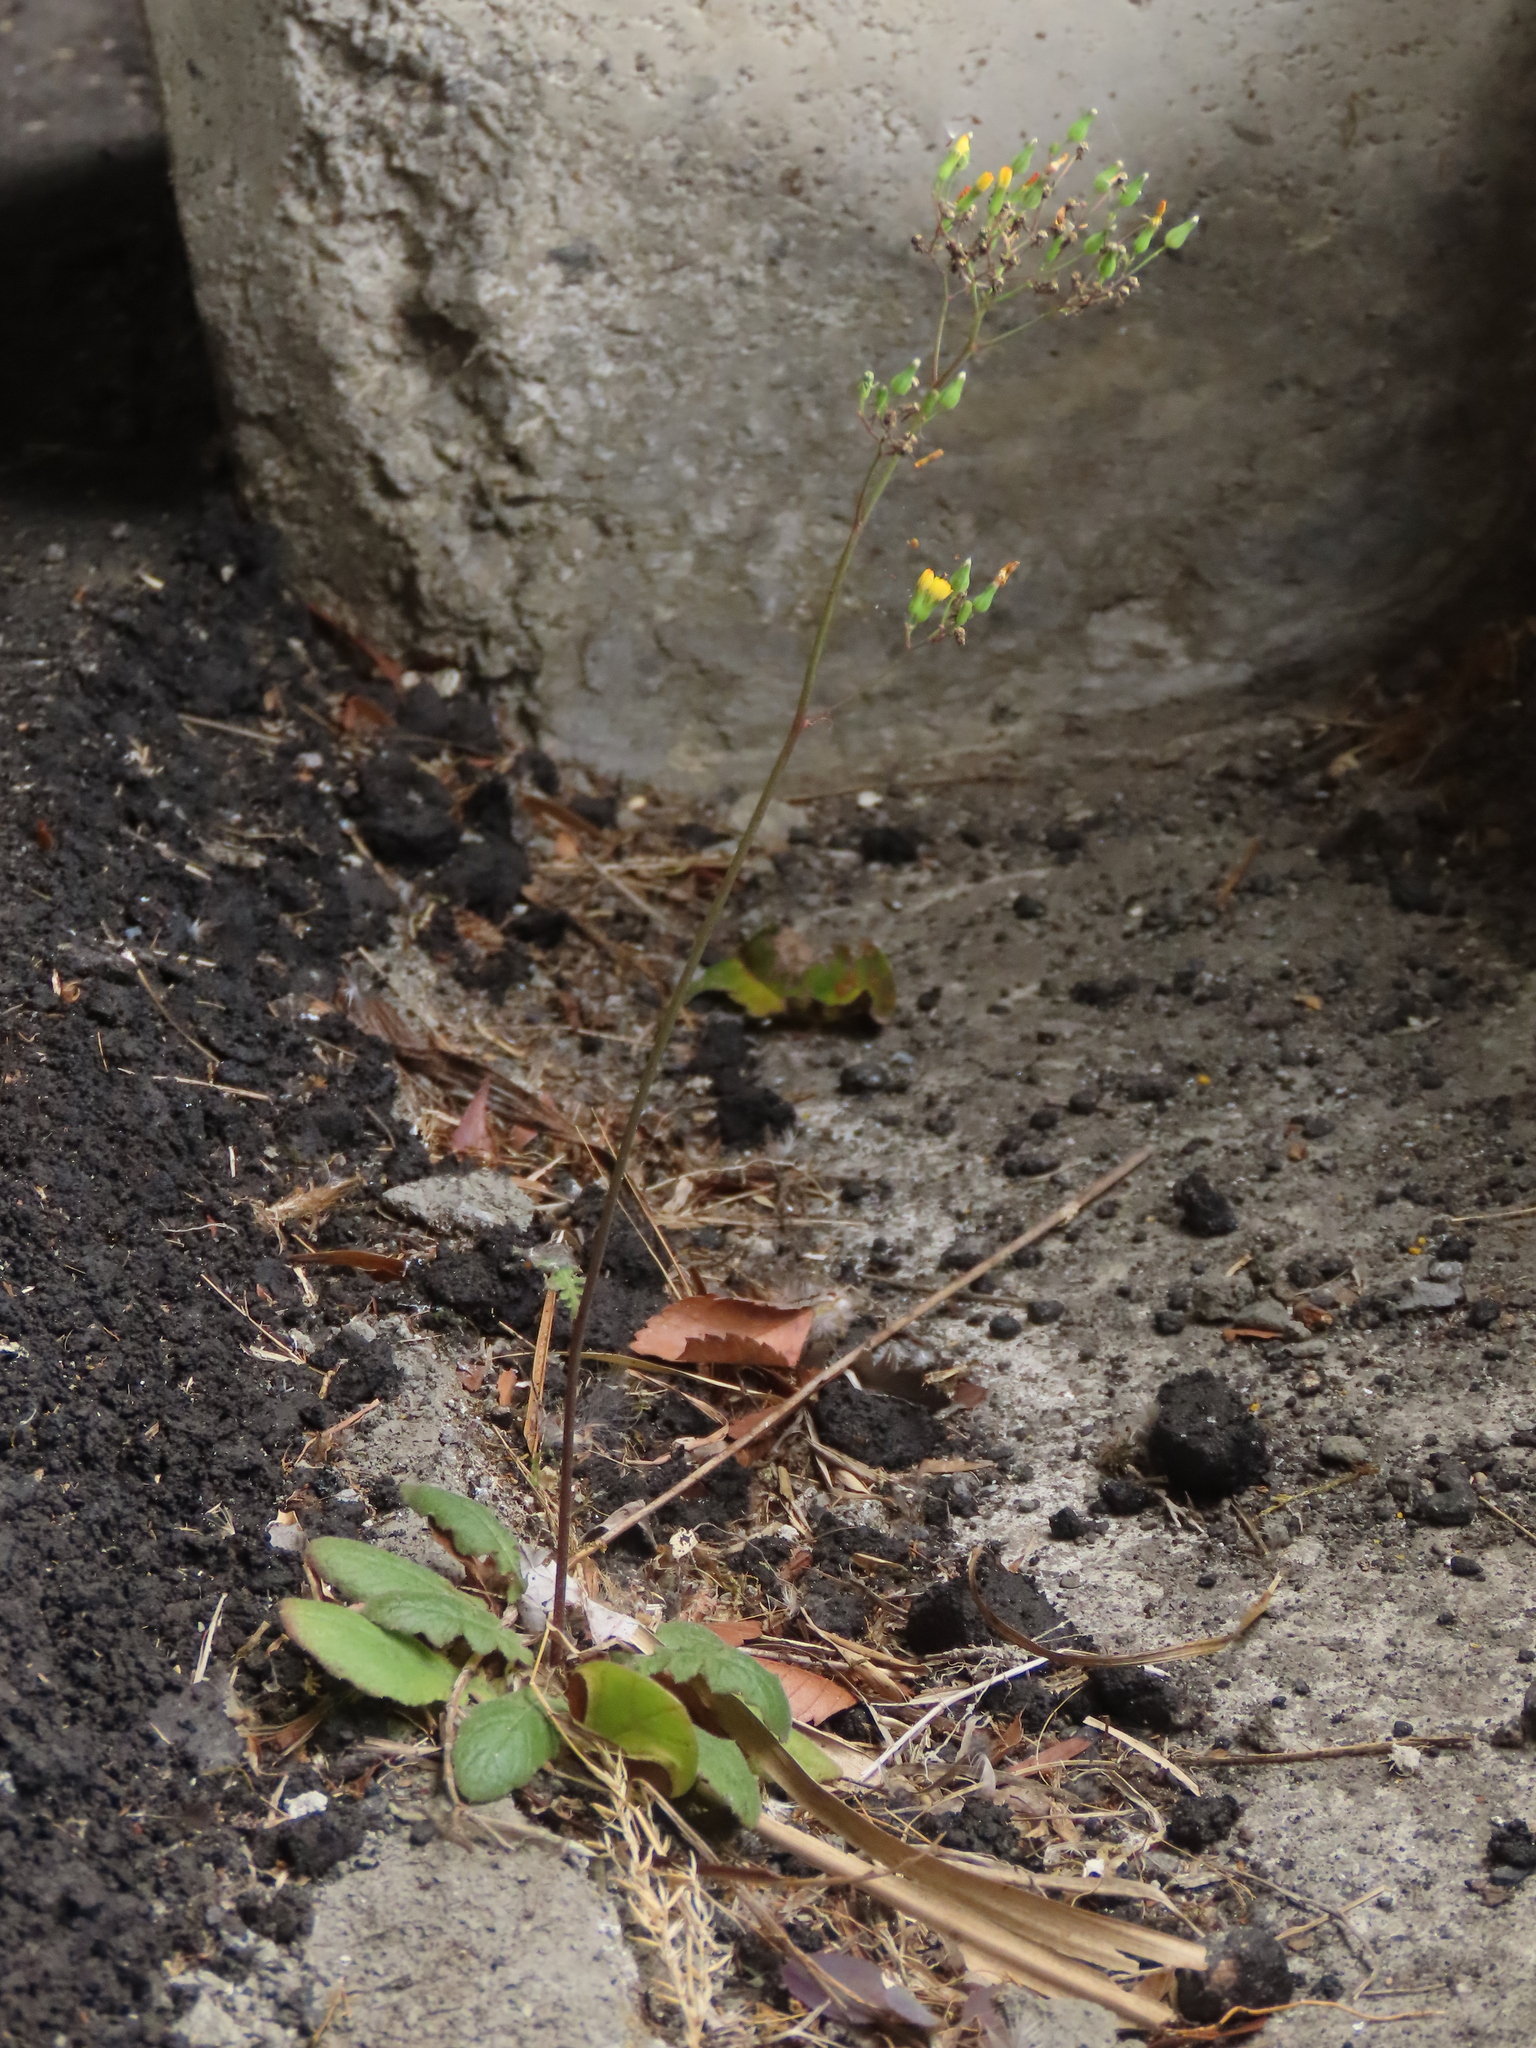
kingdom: Plantae
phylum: Tracheophyta
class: Magnoliopsida
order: Asterales
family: Asteraceae
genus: Youngia
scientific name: Youngia japonica
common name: Oriental false hawksbeard
